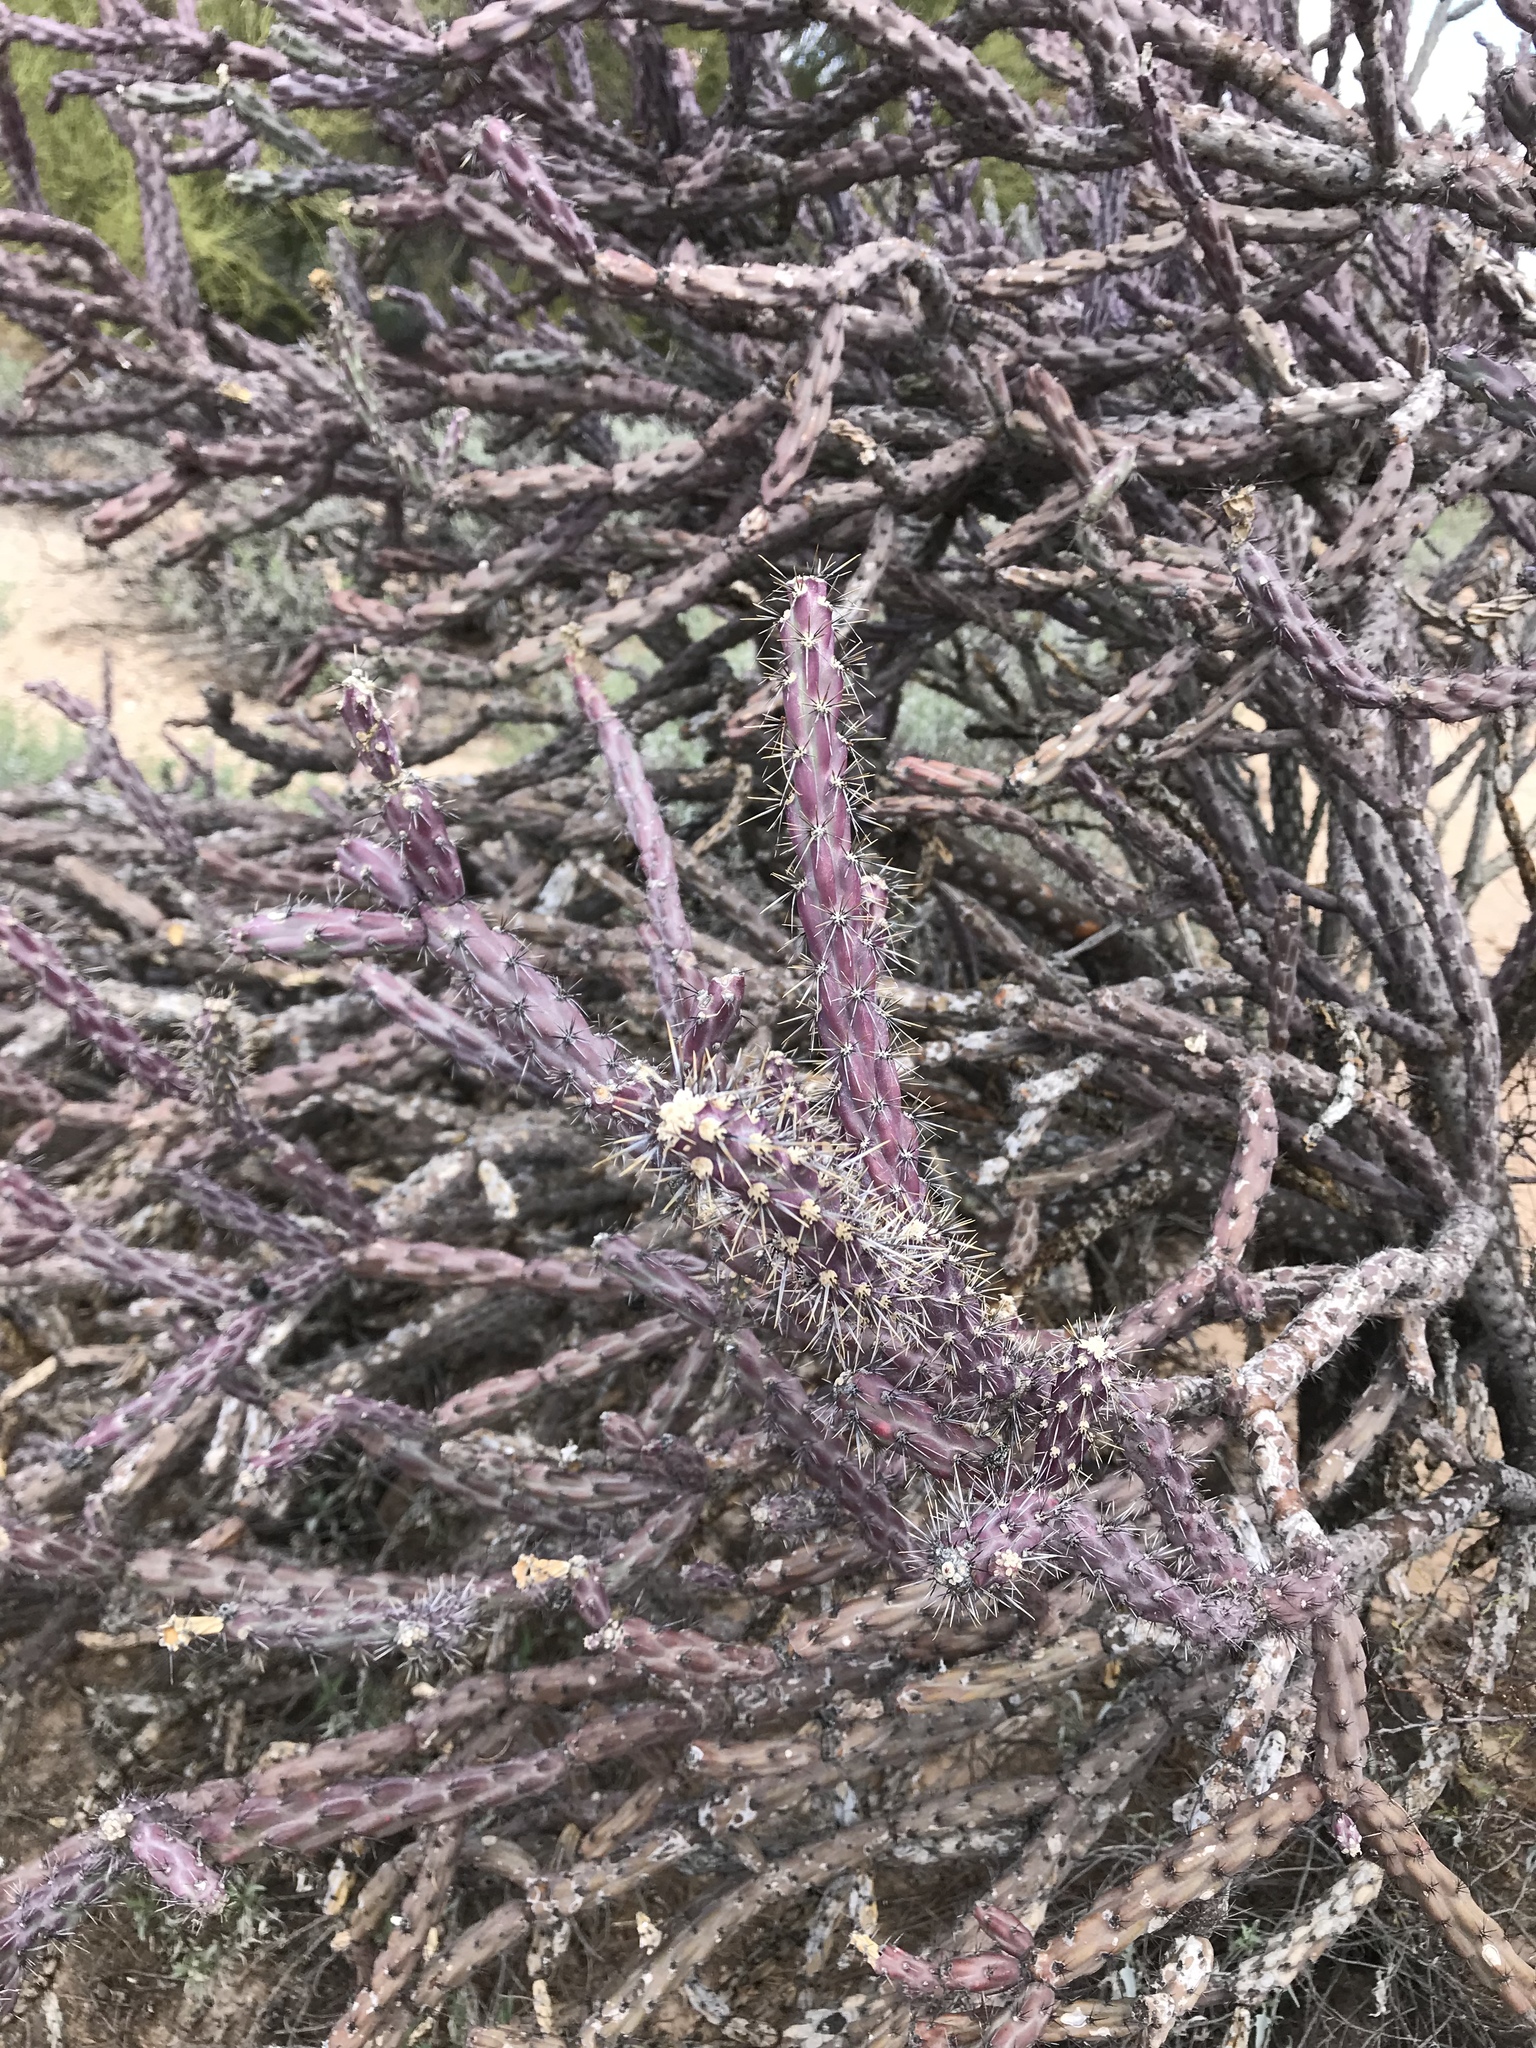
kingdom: Plantae
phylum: Tracheophyta
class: Magnoliopsida
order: Caryophyllales
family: Cactaceae
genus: Cylindropuntia
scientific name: Cylindropuntia thurberi
